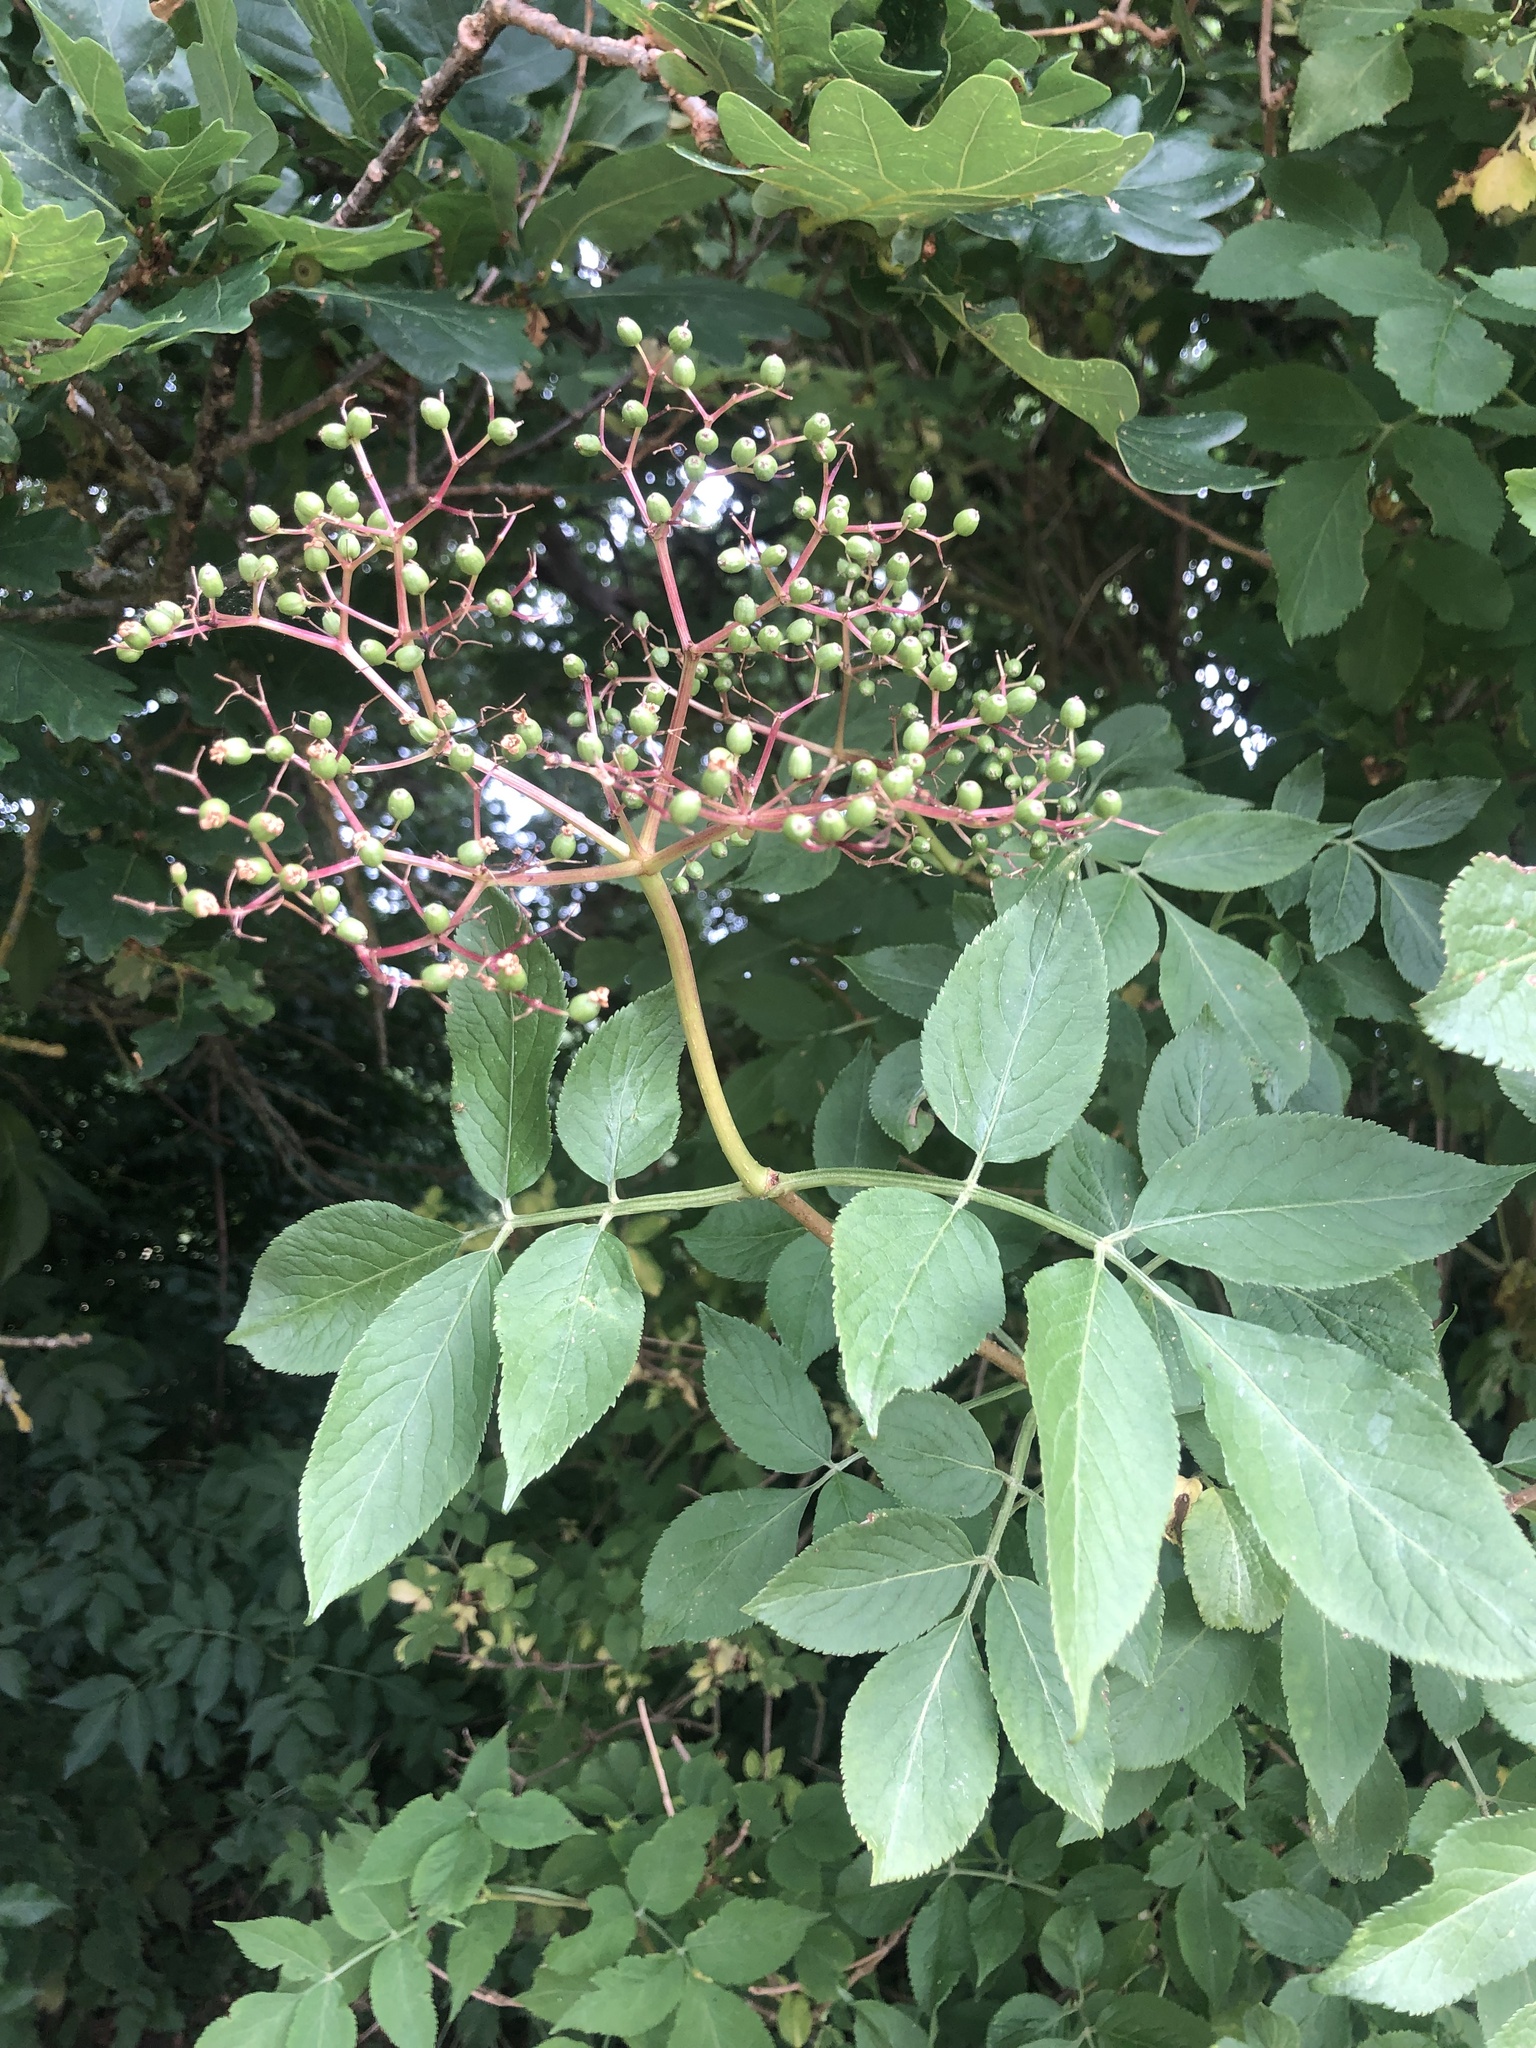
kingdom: Plantae
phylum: Tracheophyta
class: Magnoliopsida
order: Dipsacales
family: Viburnaceae
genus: Sambucus
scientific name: Sambucus nigra
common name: Elder
